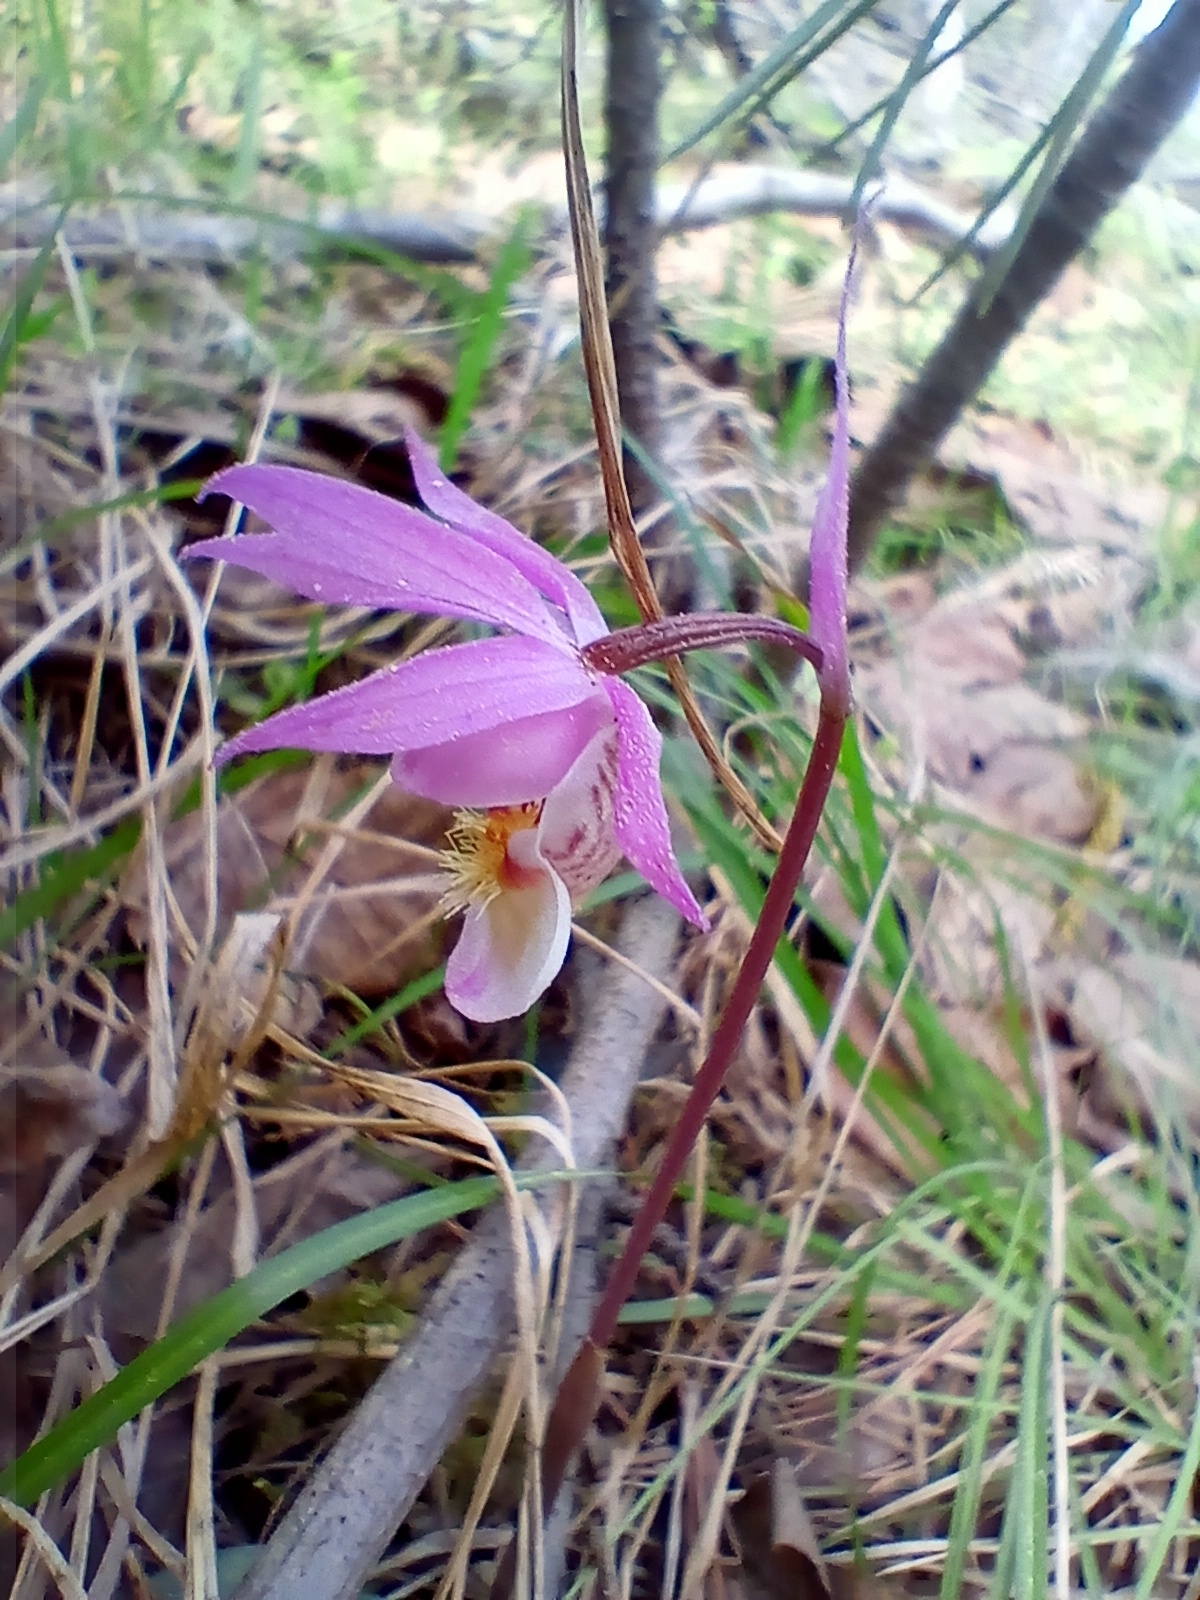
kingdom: Plantae
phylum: Tracheophyta
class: Liliopsida
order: Asparagales
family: Orchidaceae
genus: Calypso
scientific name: Calypso bulbosa
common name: Calypso
